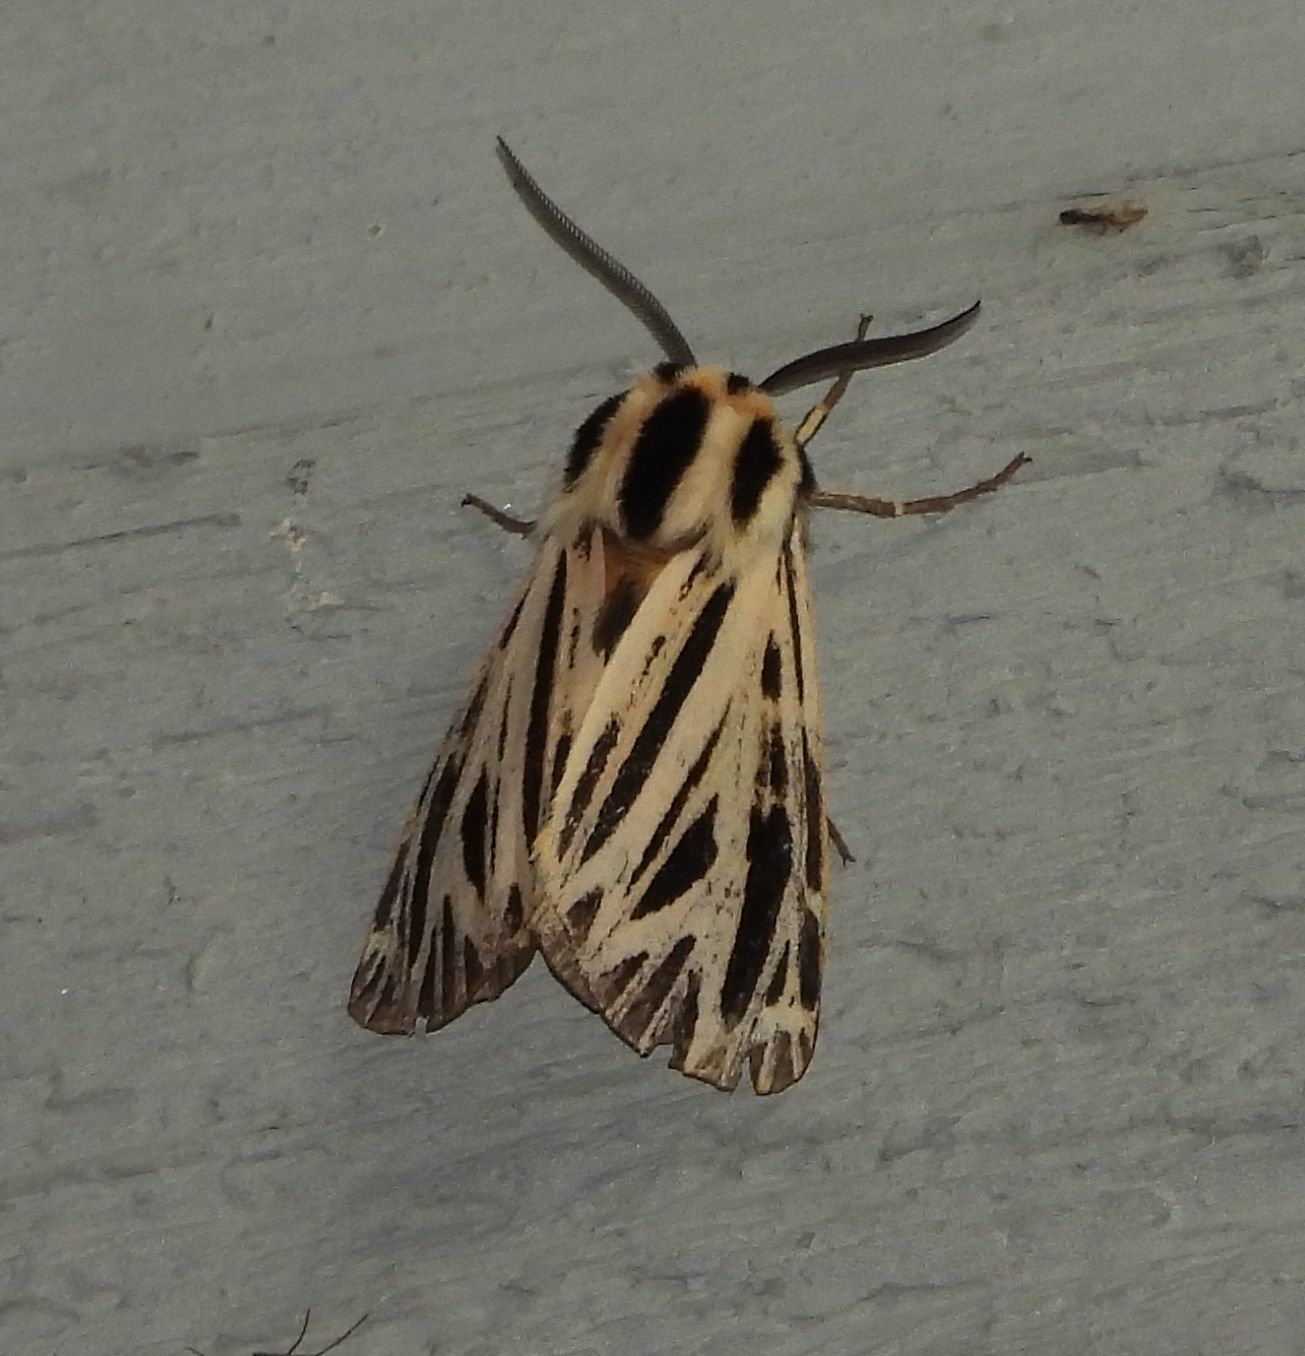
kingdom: Animalia
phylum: Arthropoda
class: Insecta
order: Lepidoptera
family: Erebidae
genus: Grammia
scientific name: Grammia virguncula
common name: Little tiger moth
